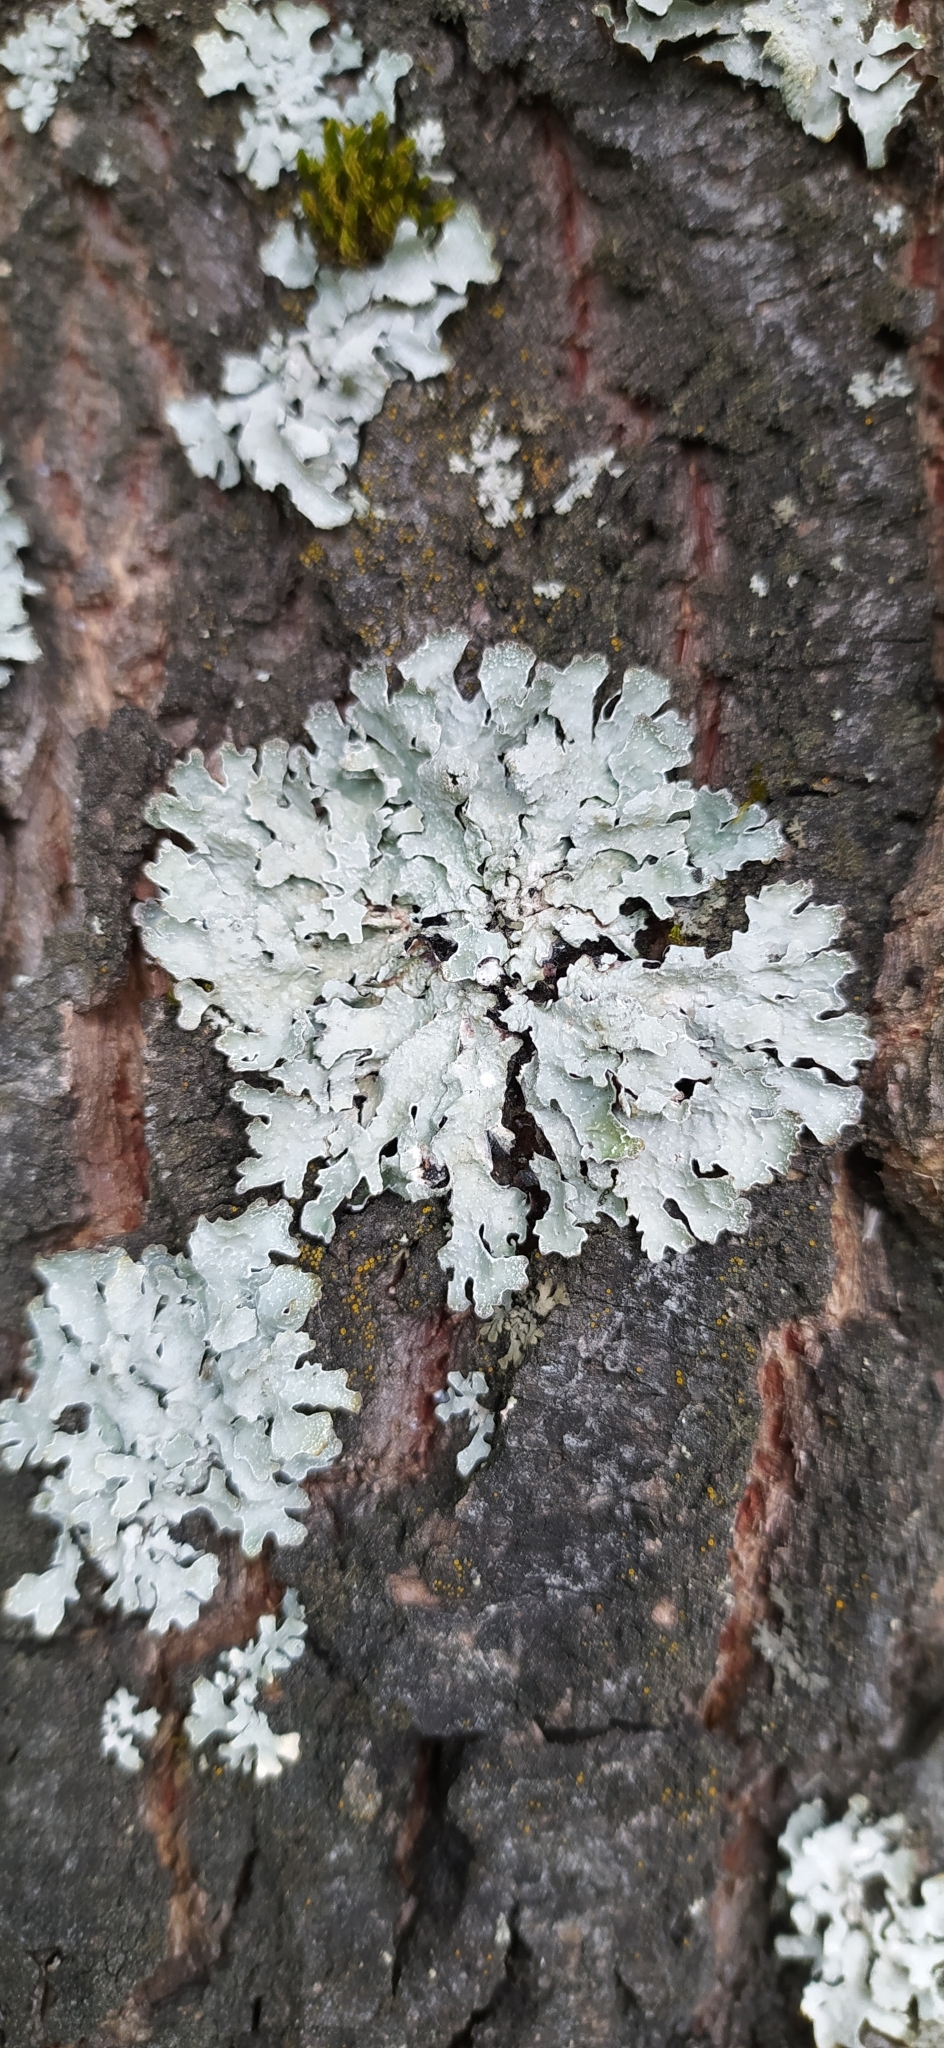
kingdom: Fungi
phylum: Ascomycota
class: Lecanoromycetes
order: Lecanorales
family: Parmeliaceae
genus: Parmelia
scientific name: Parmelia sulcata
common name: Netted shield lichen
